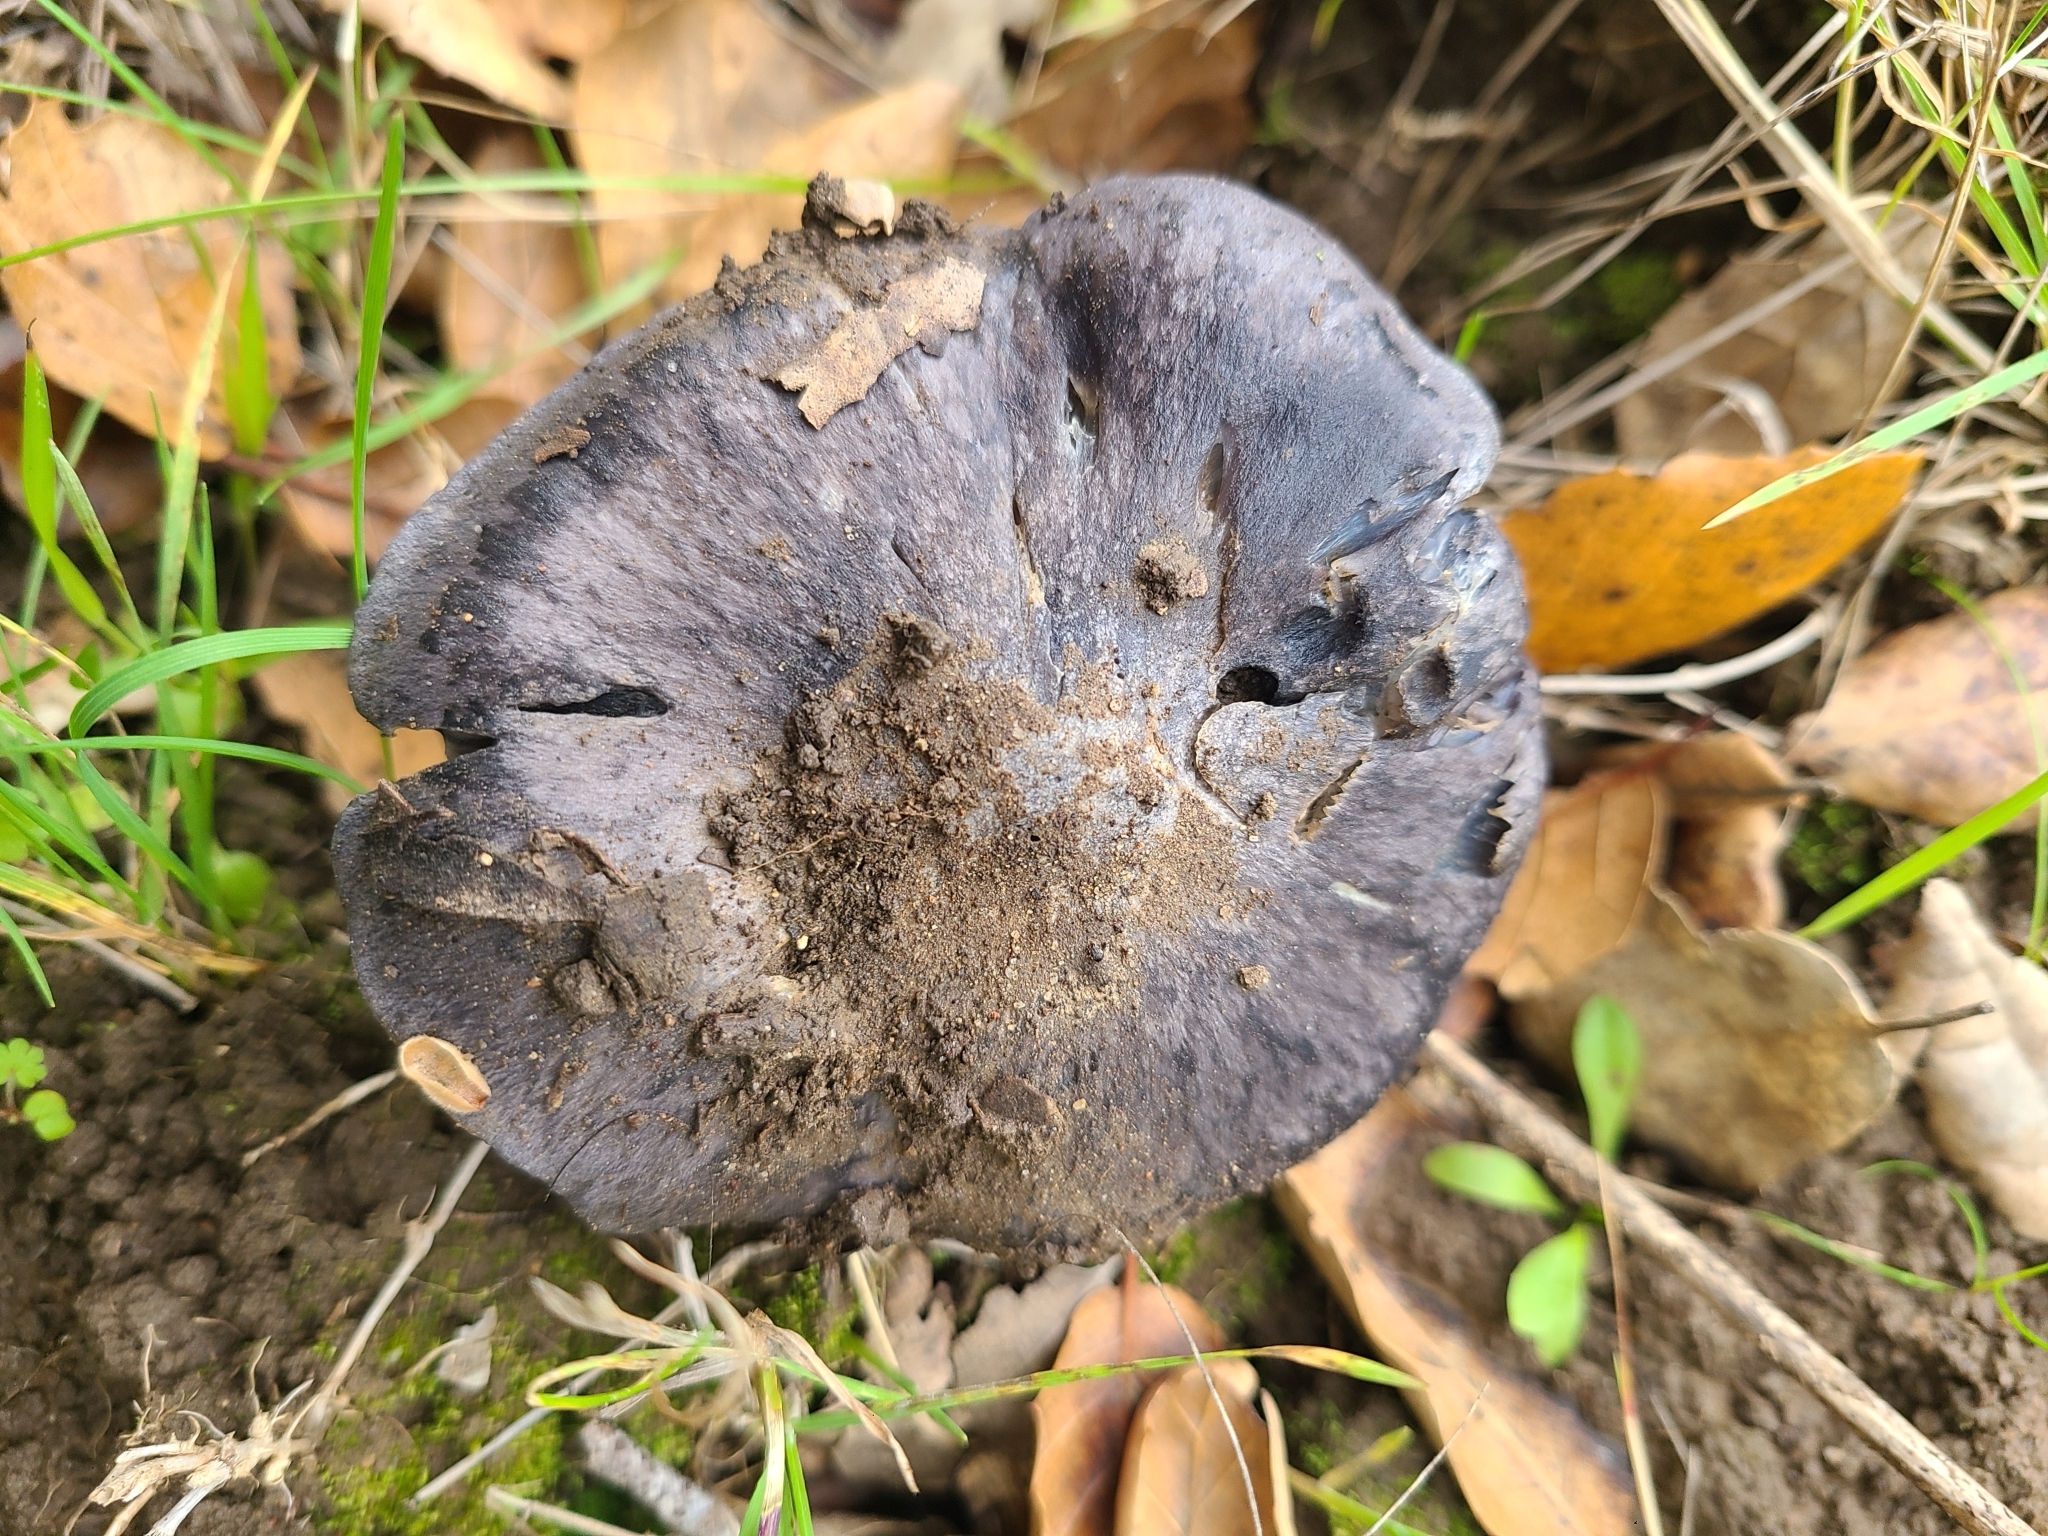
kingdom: Fungi
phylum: Basidiomycota
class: Agaricomycetes
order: Agaricales
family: Entolomataceae
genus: Entoloma
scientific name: Entoloma medianox
